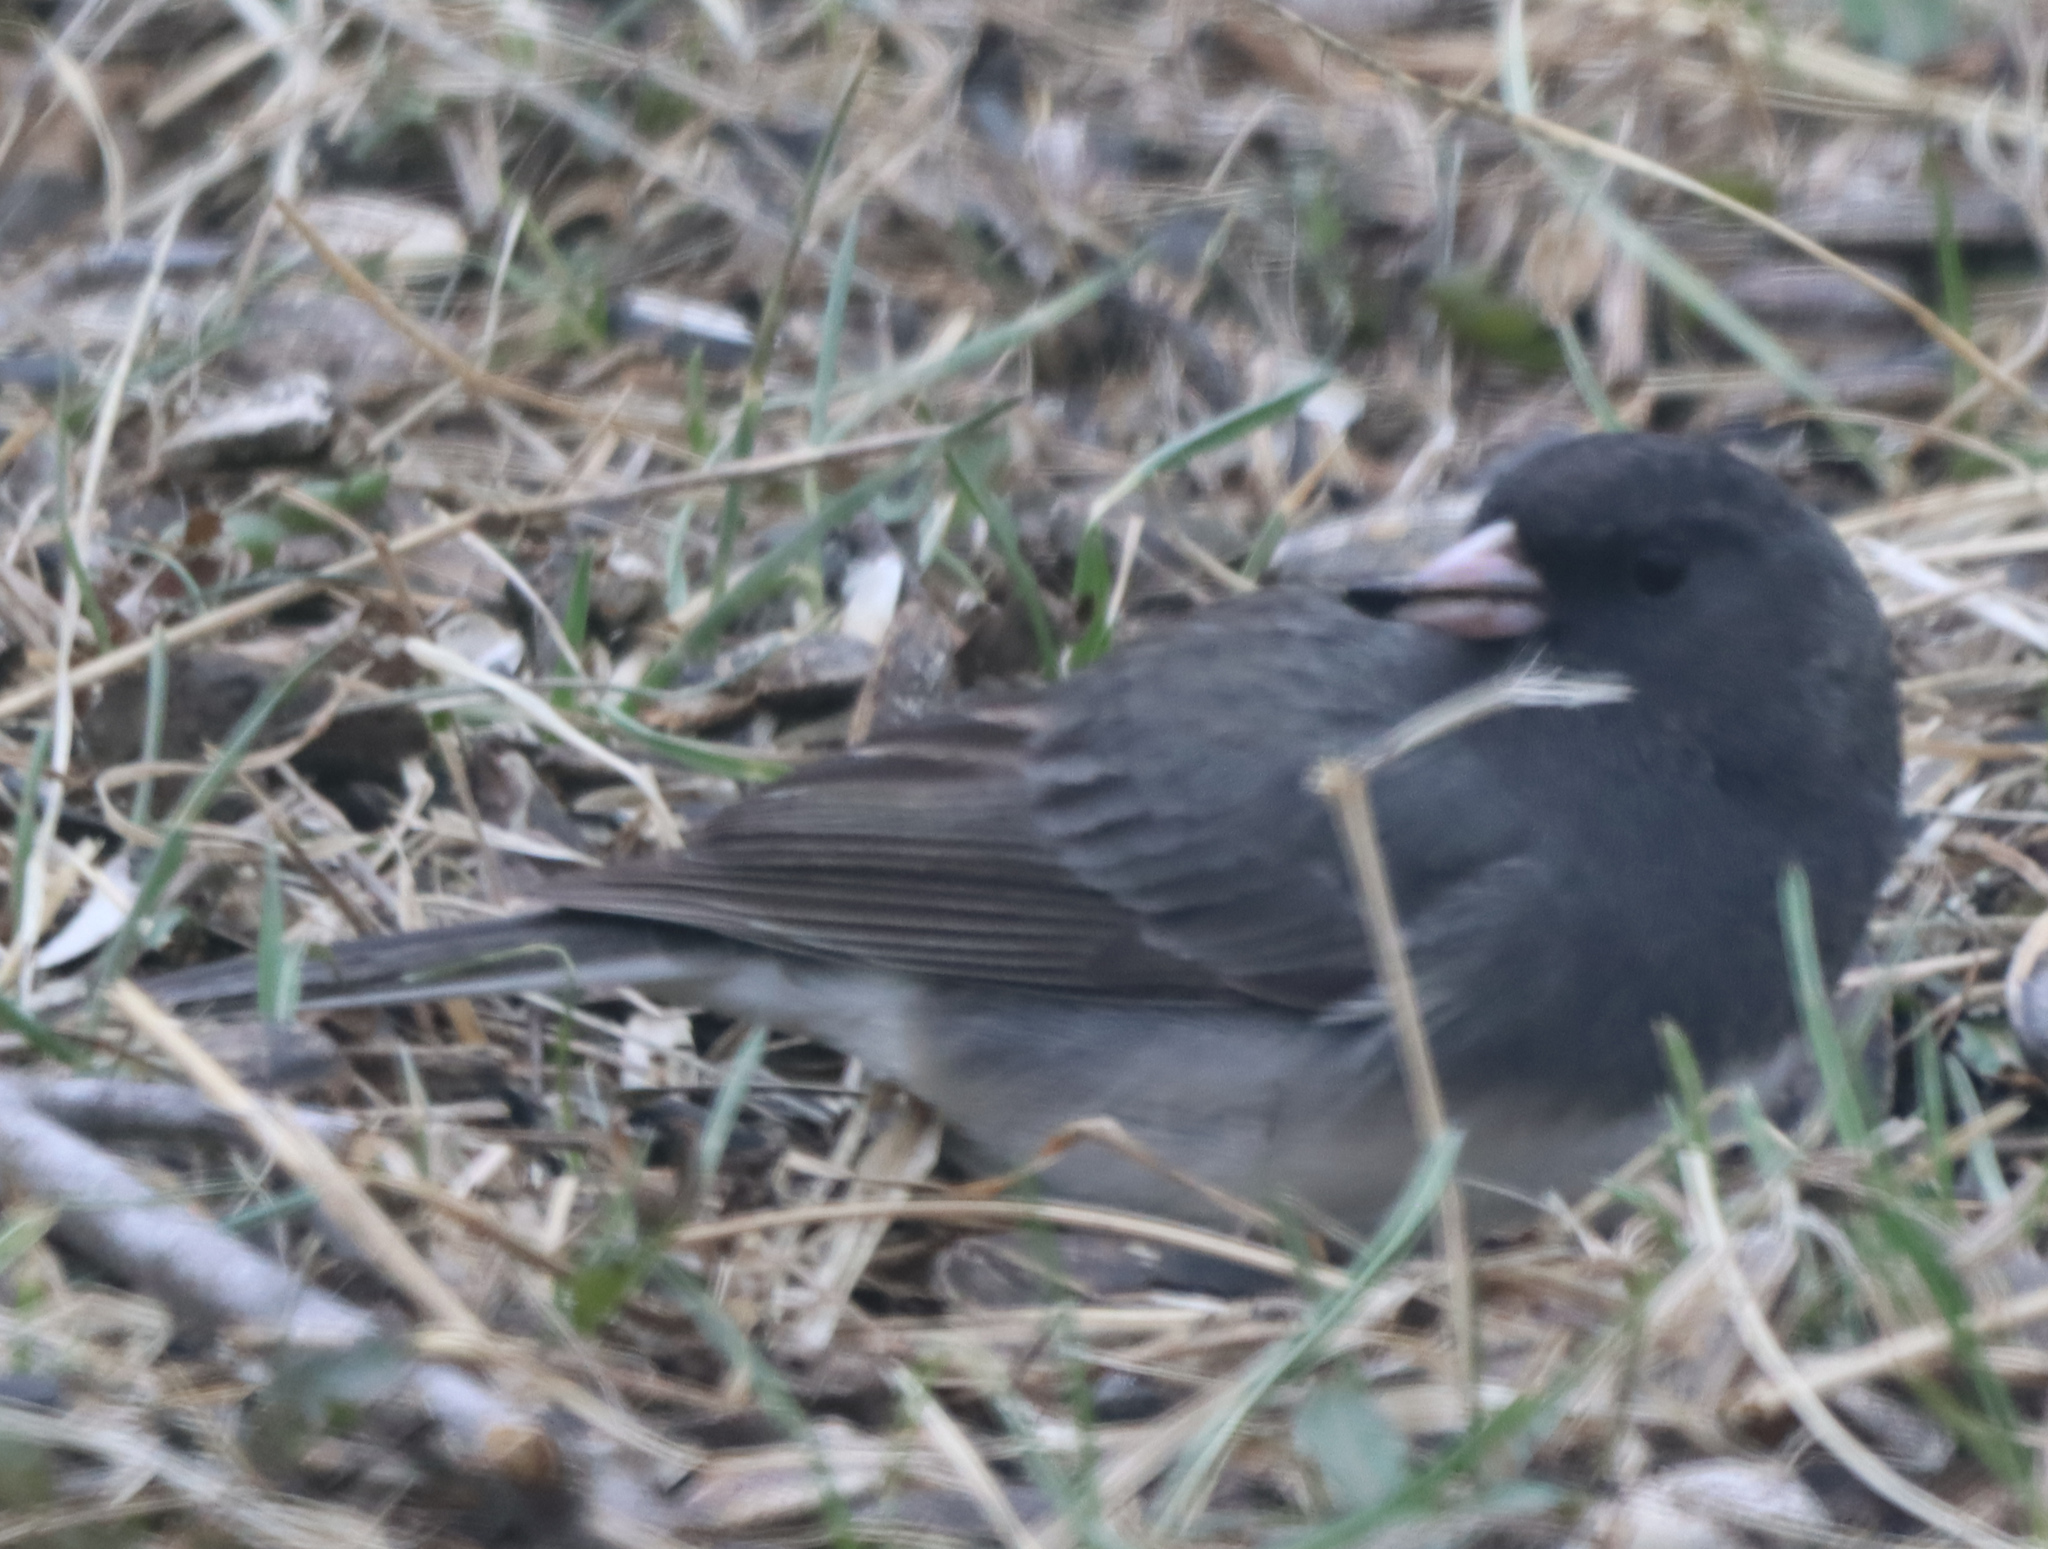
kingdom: Animalia
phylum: Chordata
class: Aves
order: Passeriformes
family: Passerellidae
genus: Junco
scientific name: Junco hyemalis
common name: Dark-eyed junco
